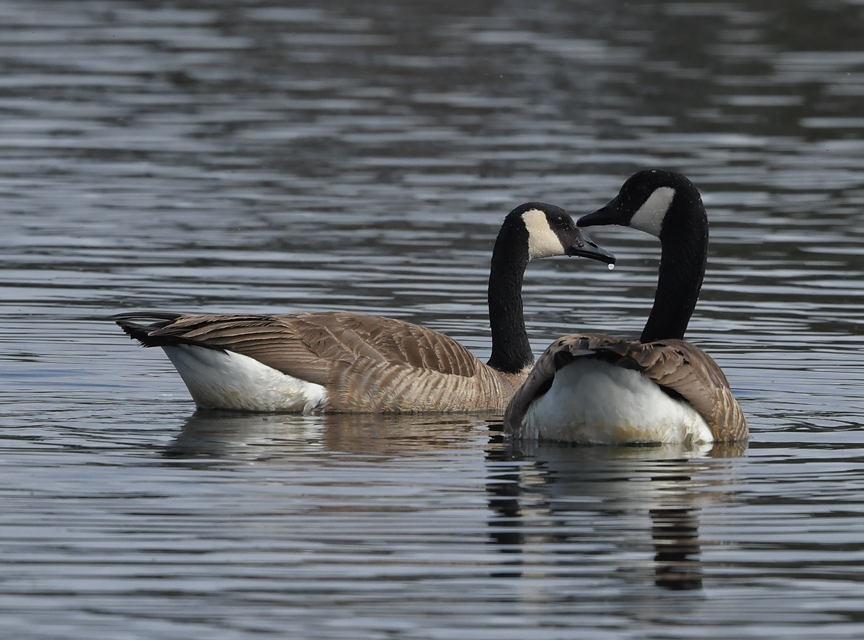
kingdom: Animalia
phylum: Chordata
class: Aves
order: Anseriformes
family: Anatidae
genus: Branta
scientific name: Branta canadensis
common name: Canada goose
